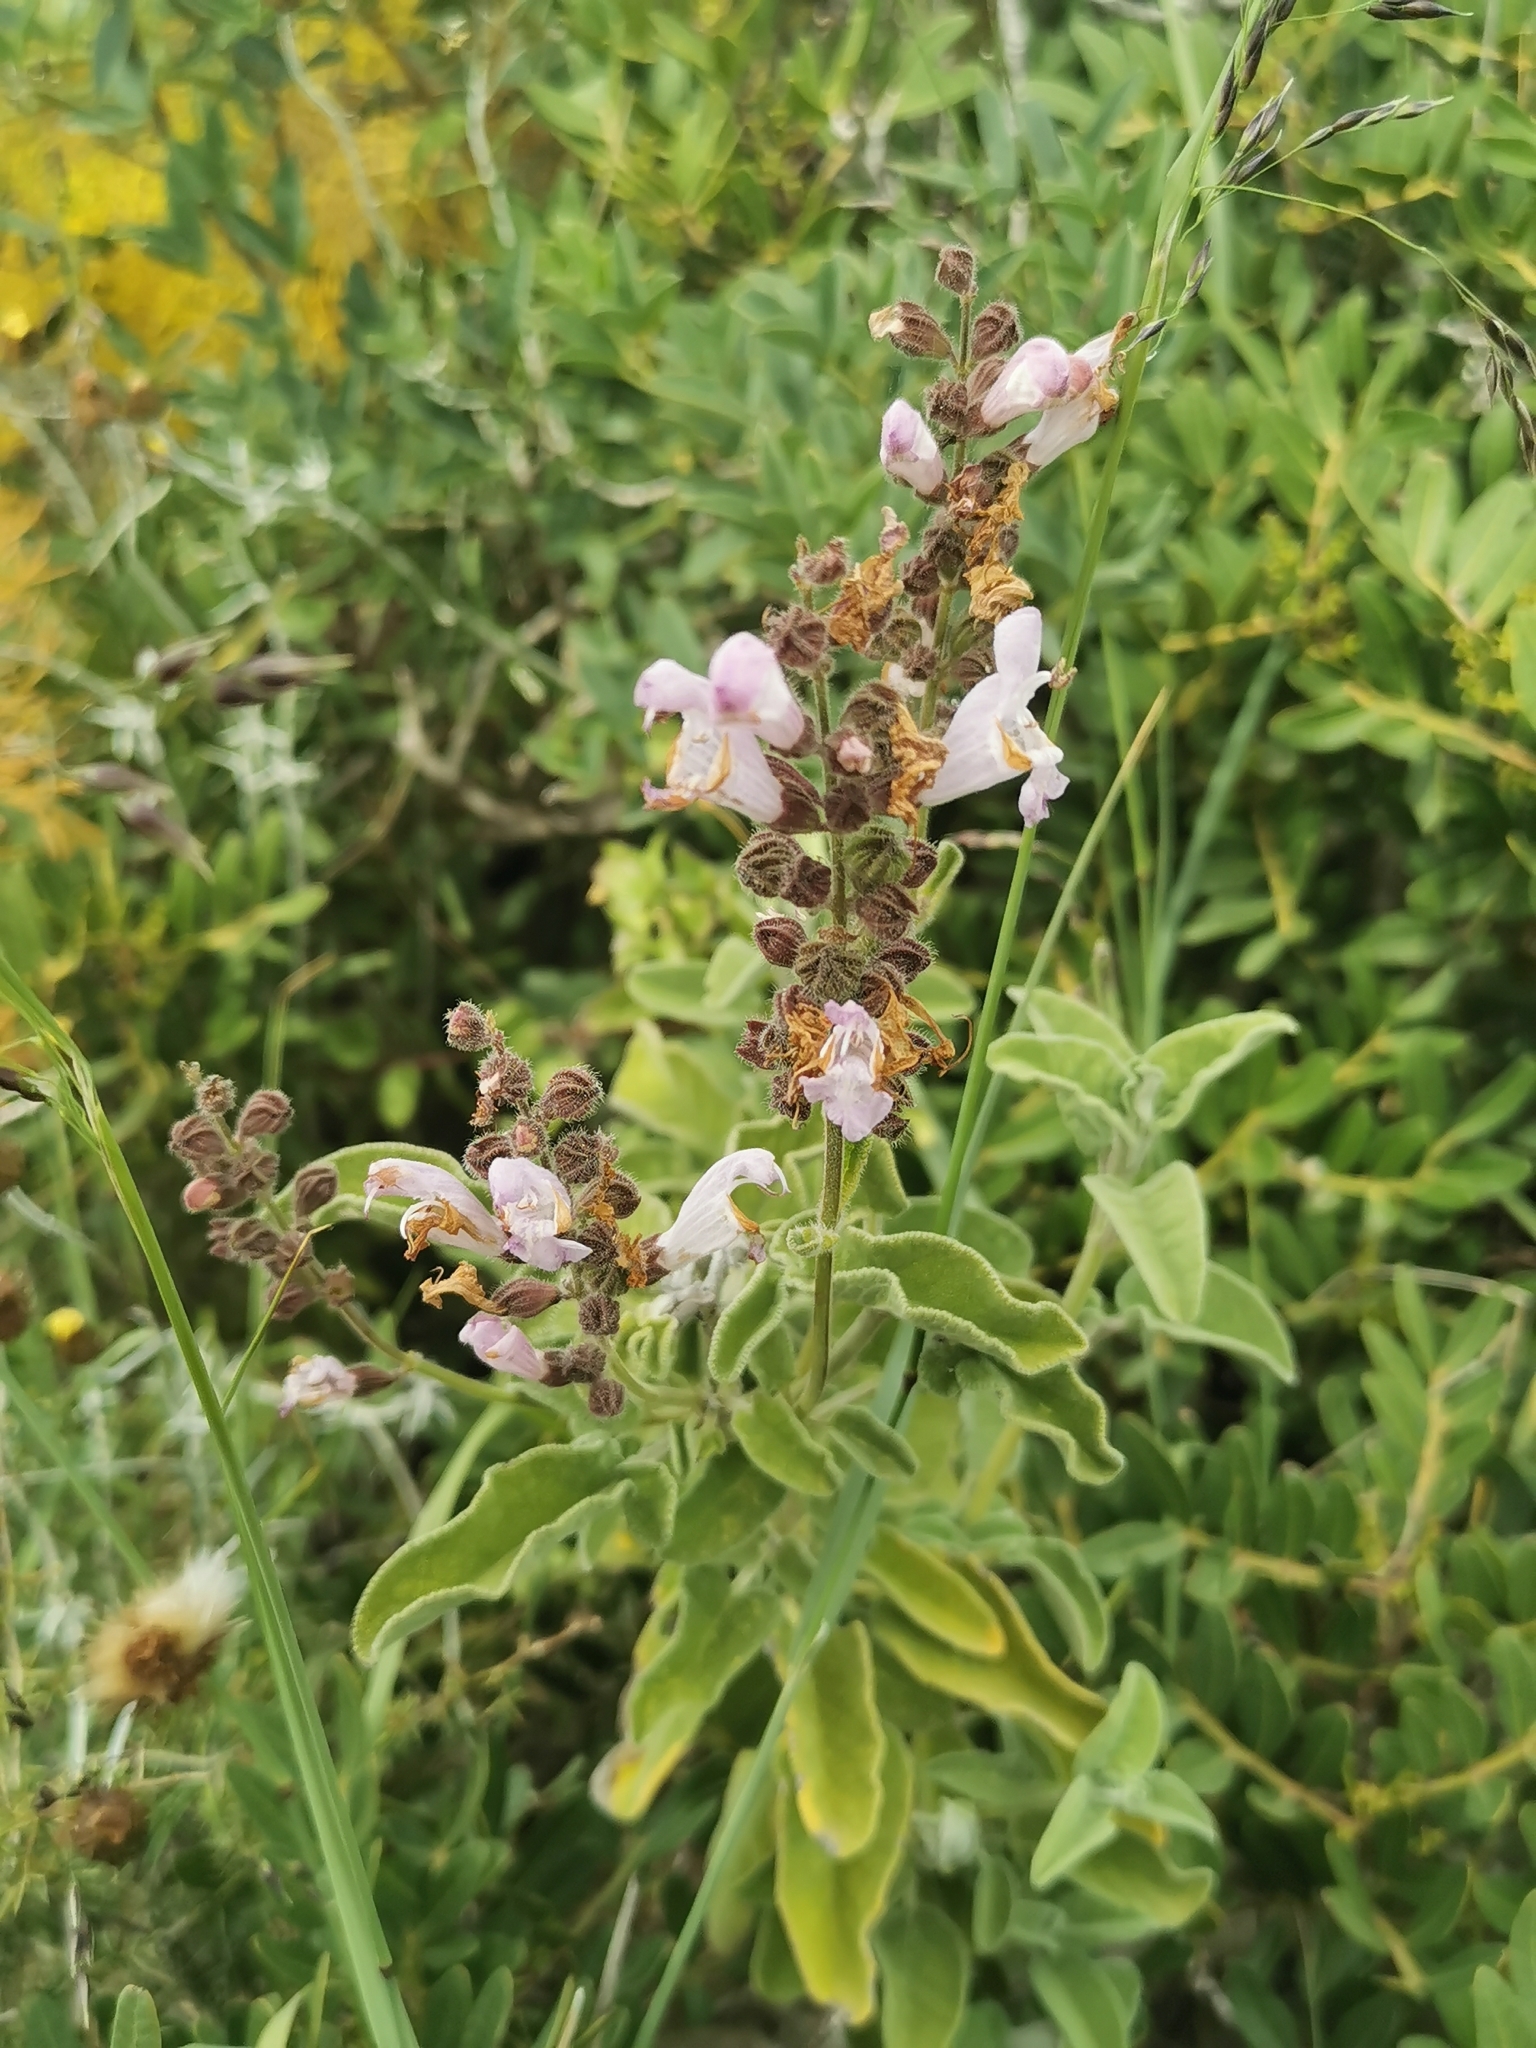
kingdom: Plantae
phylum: Tracheophyta
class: Magnoliopsida
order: Lamiales
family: Lamiaceae
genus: Salvia
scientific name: Salvia fruticosa
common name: Greek sage
